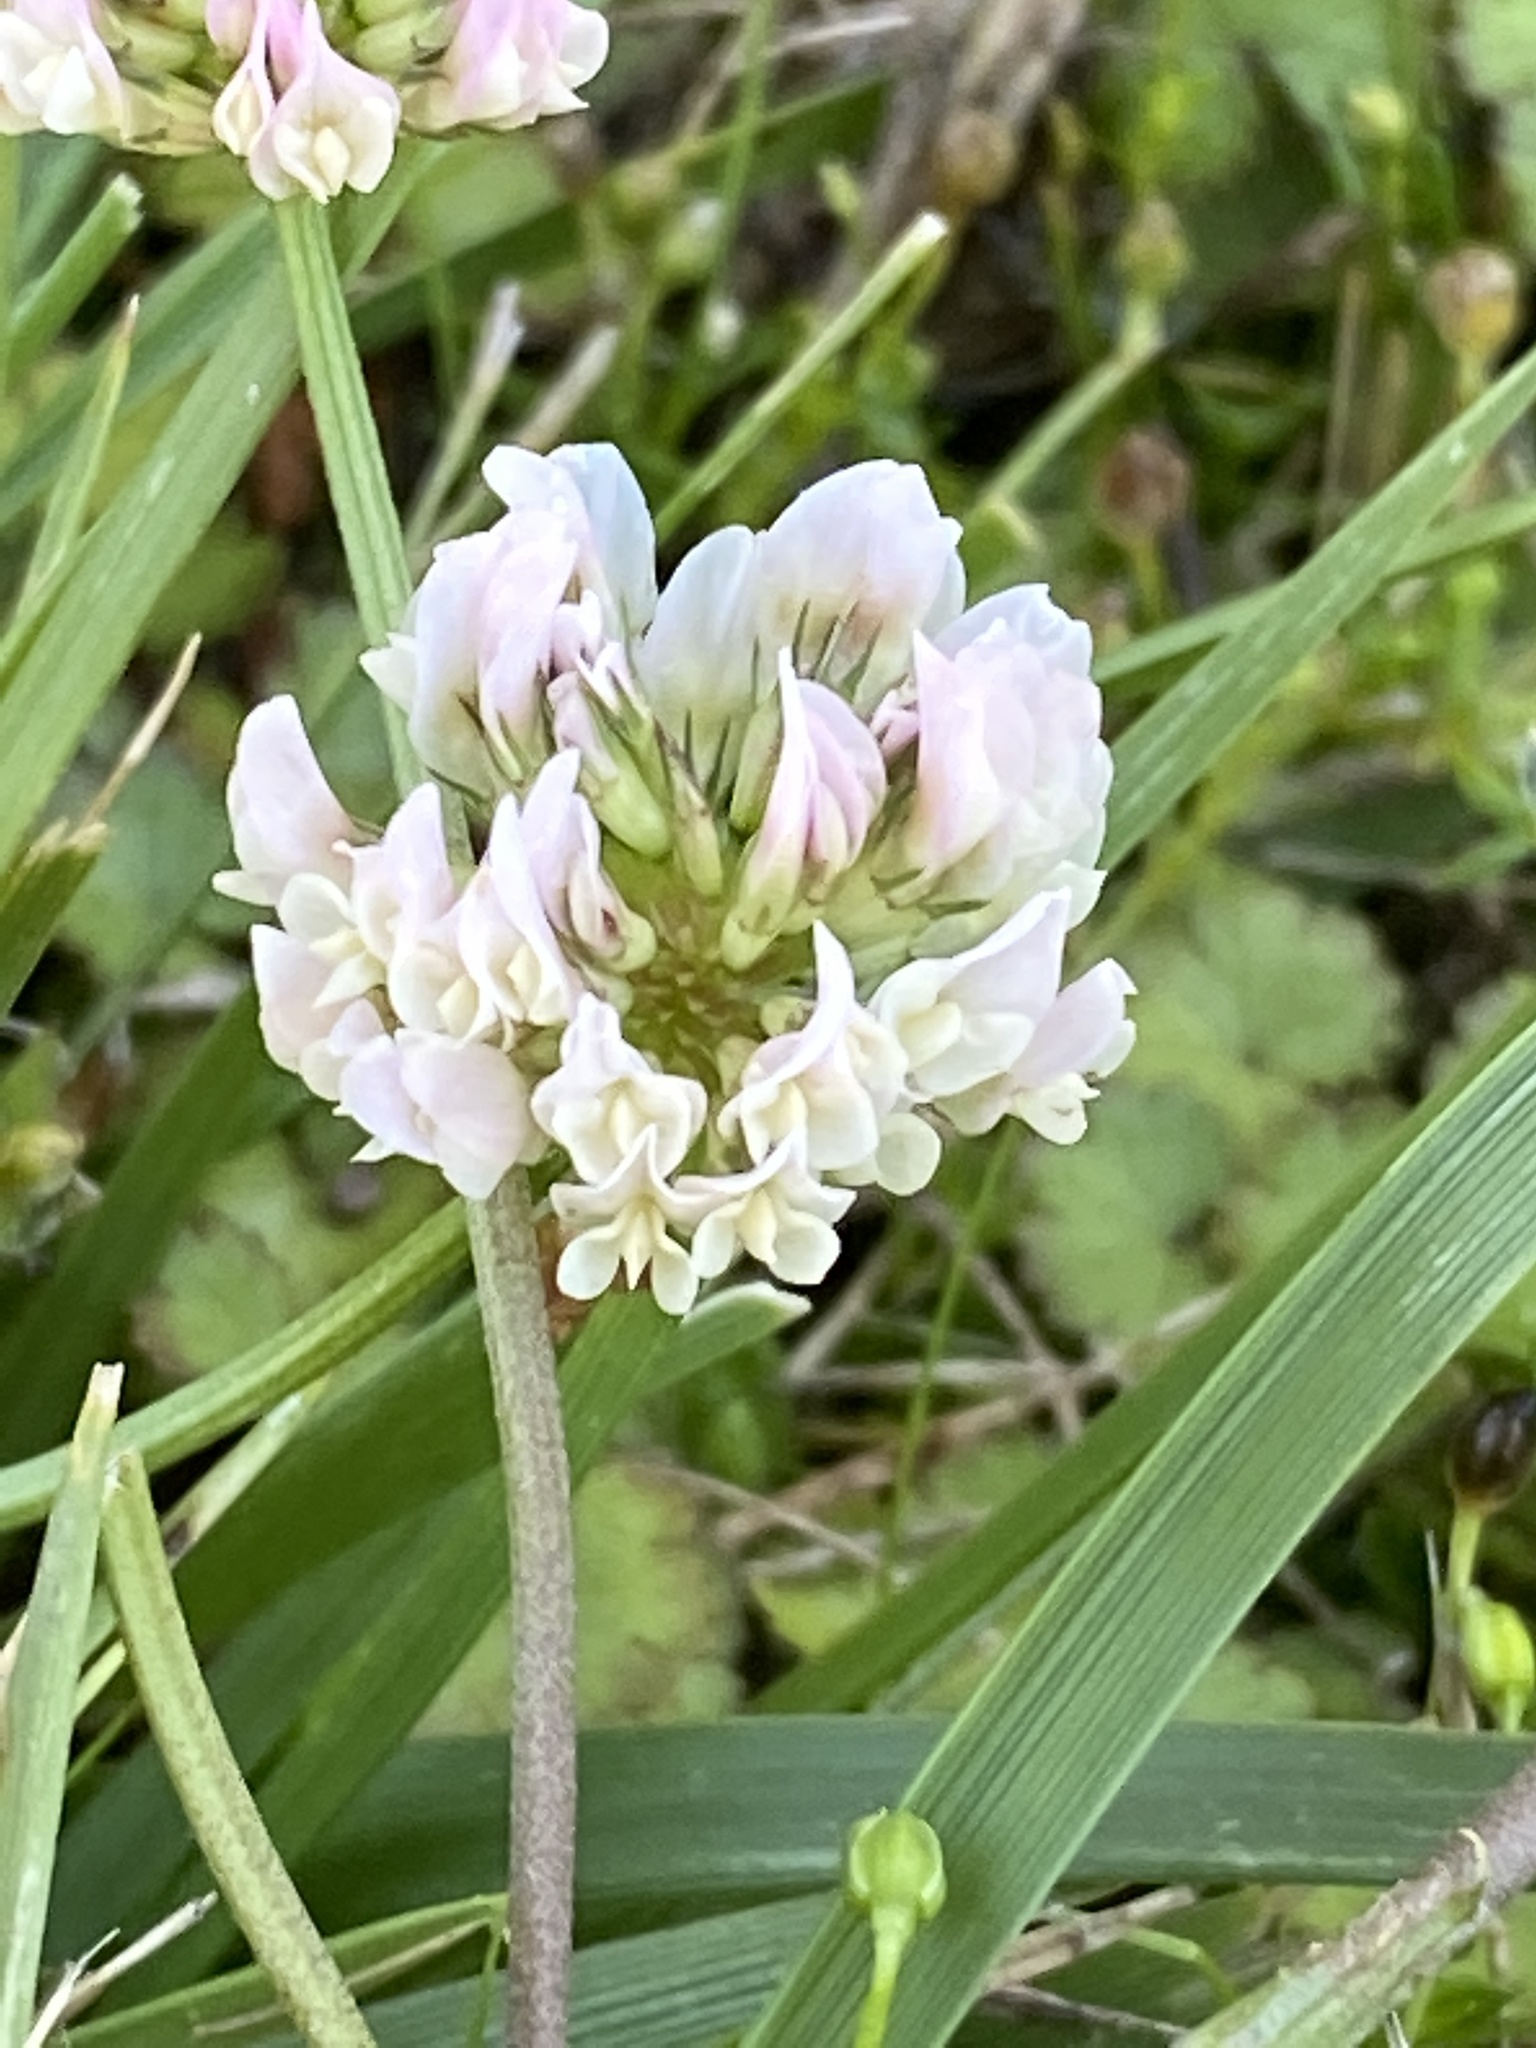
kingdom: Plantae
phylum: Tracheophyta
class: Magnoliopsida
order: Fabales
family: Fabaceae
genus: Trifolium
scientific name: Trifolium repens
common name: White clover
